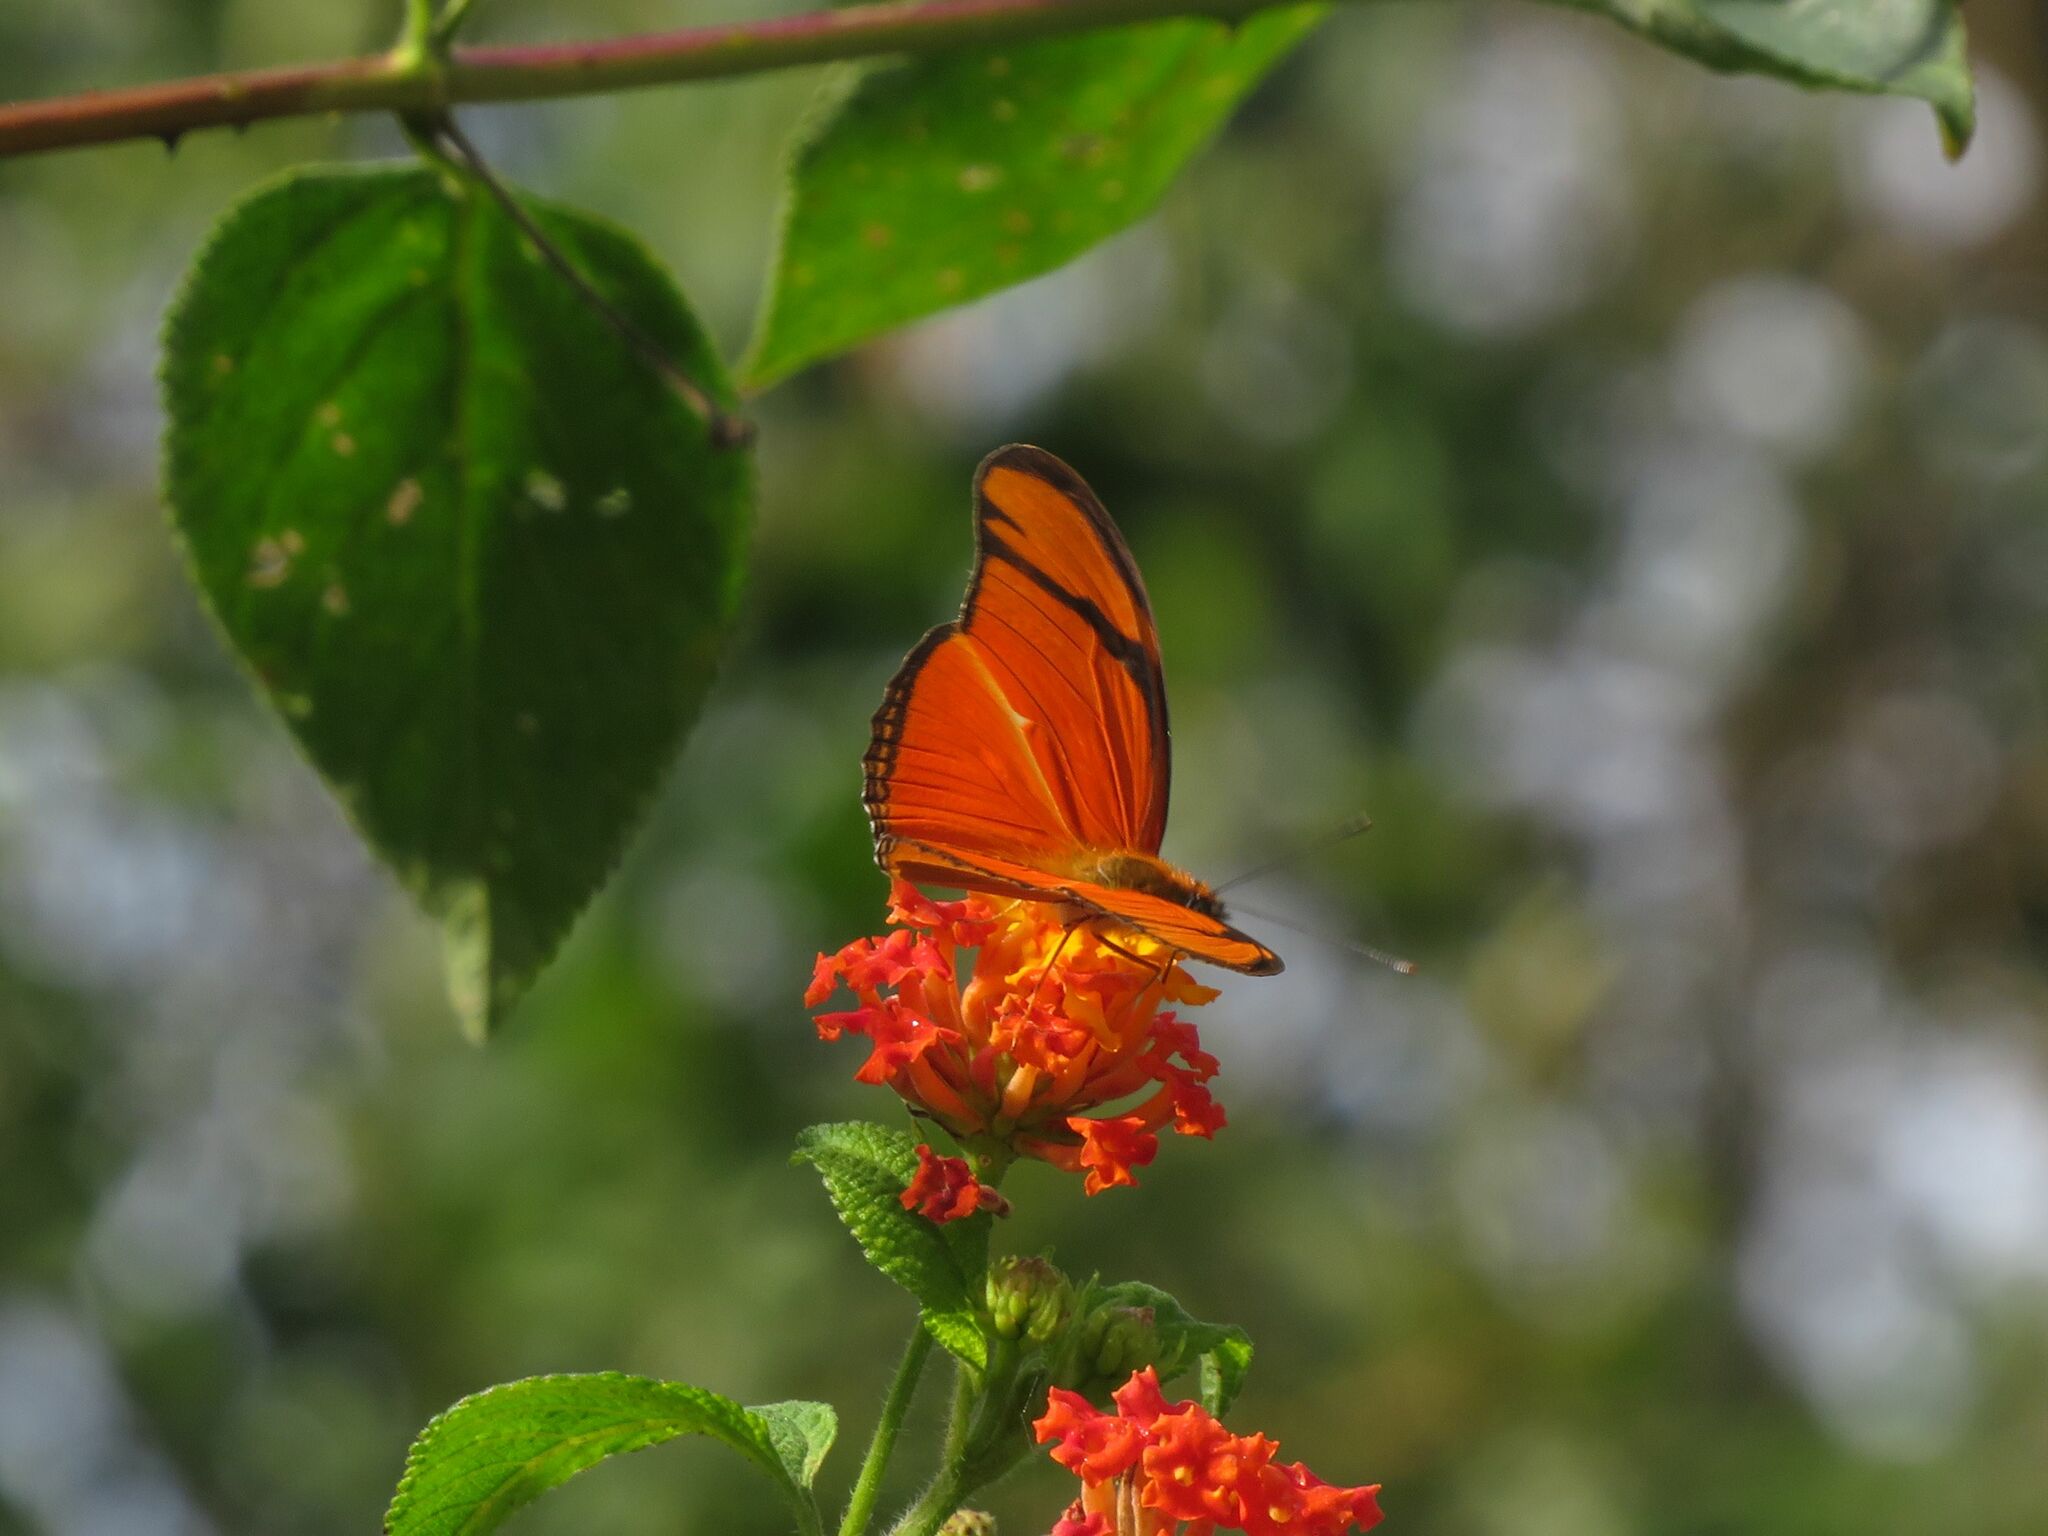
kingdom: Animalia
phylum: Arthropoda
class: Insecta
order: Lepidoptera
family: Nymphalidae
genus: Dryas
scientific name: Dryas iulia
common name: Flambeau
